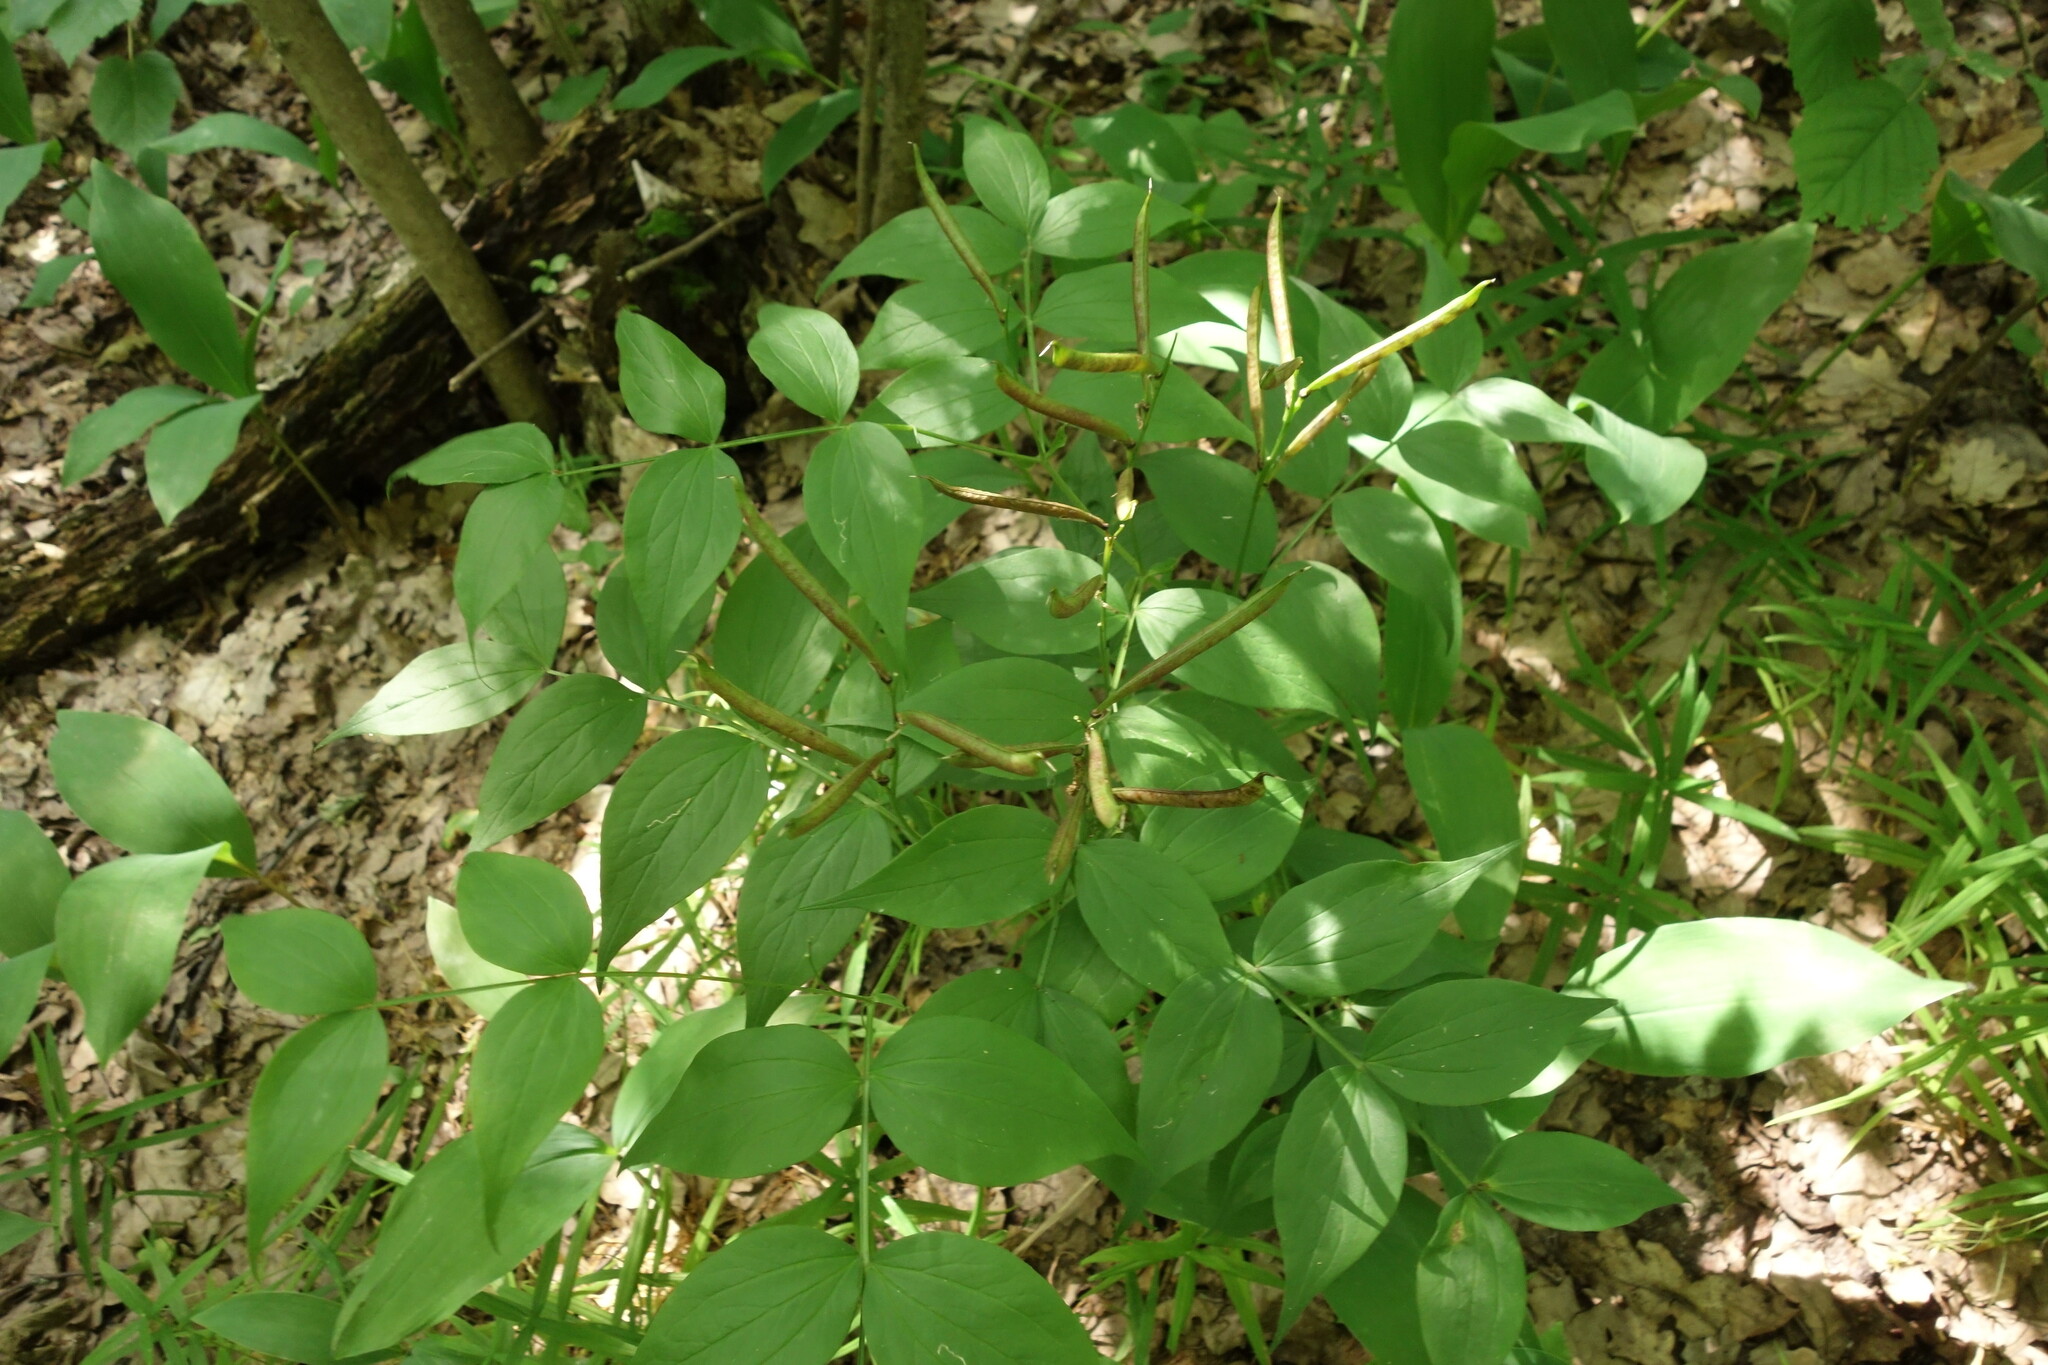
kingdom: Plantae
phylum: Tracheophyta
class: Magnoliopsida
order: Fabales
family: Fabaceae
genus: Lathyrus
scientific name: Lathyrus vernus
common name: Spring pea
